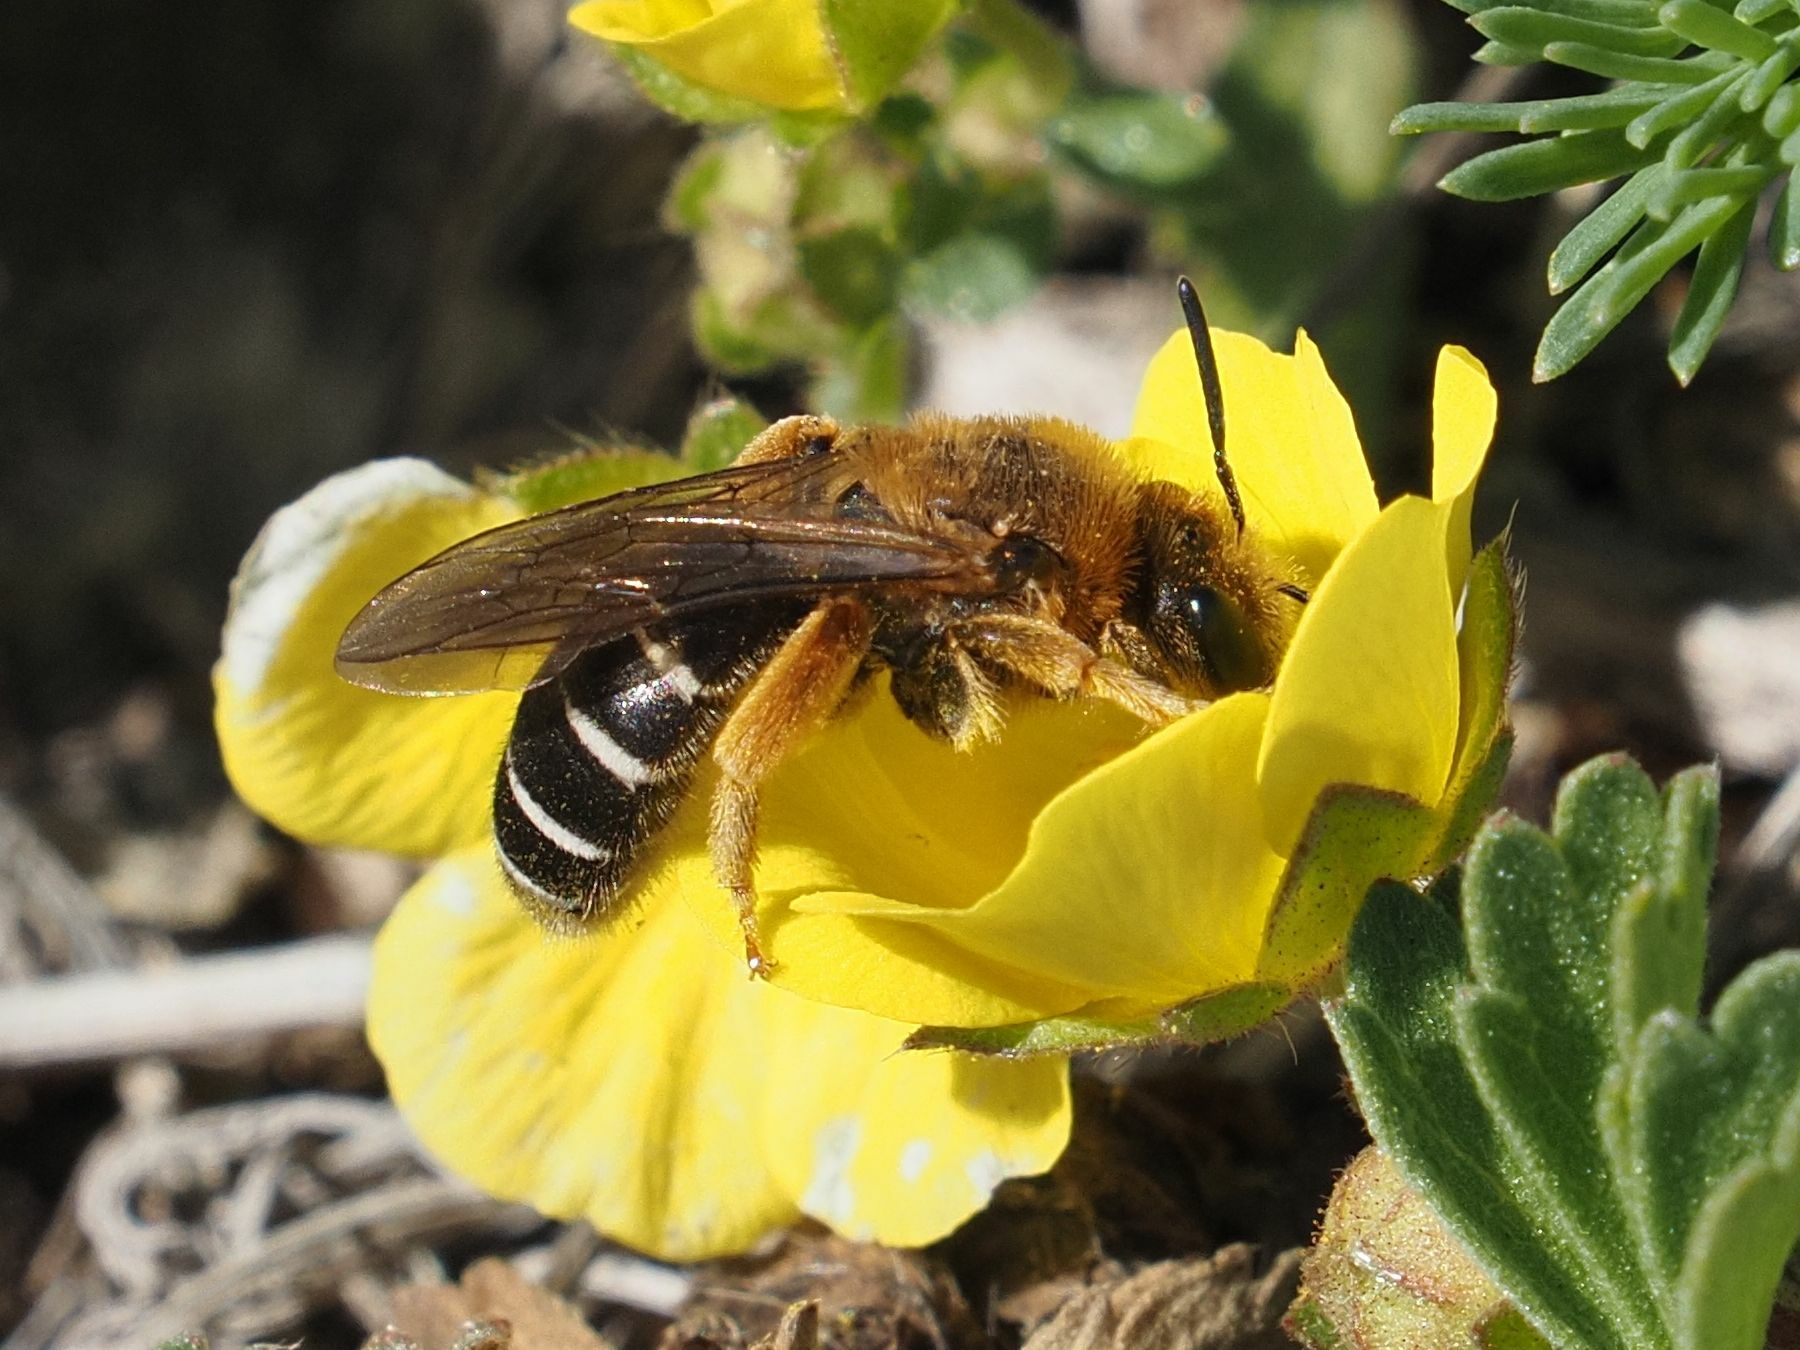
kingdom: Animalia
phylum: Arthropoda
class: Insecta
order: Hymenoptera
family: Halictidae
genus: Halictus
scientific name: Halictus rubicundus
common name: Orange-legged furrow bee
